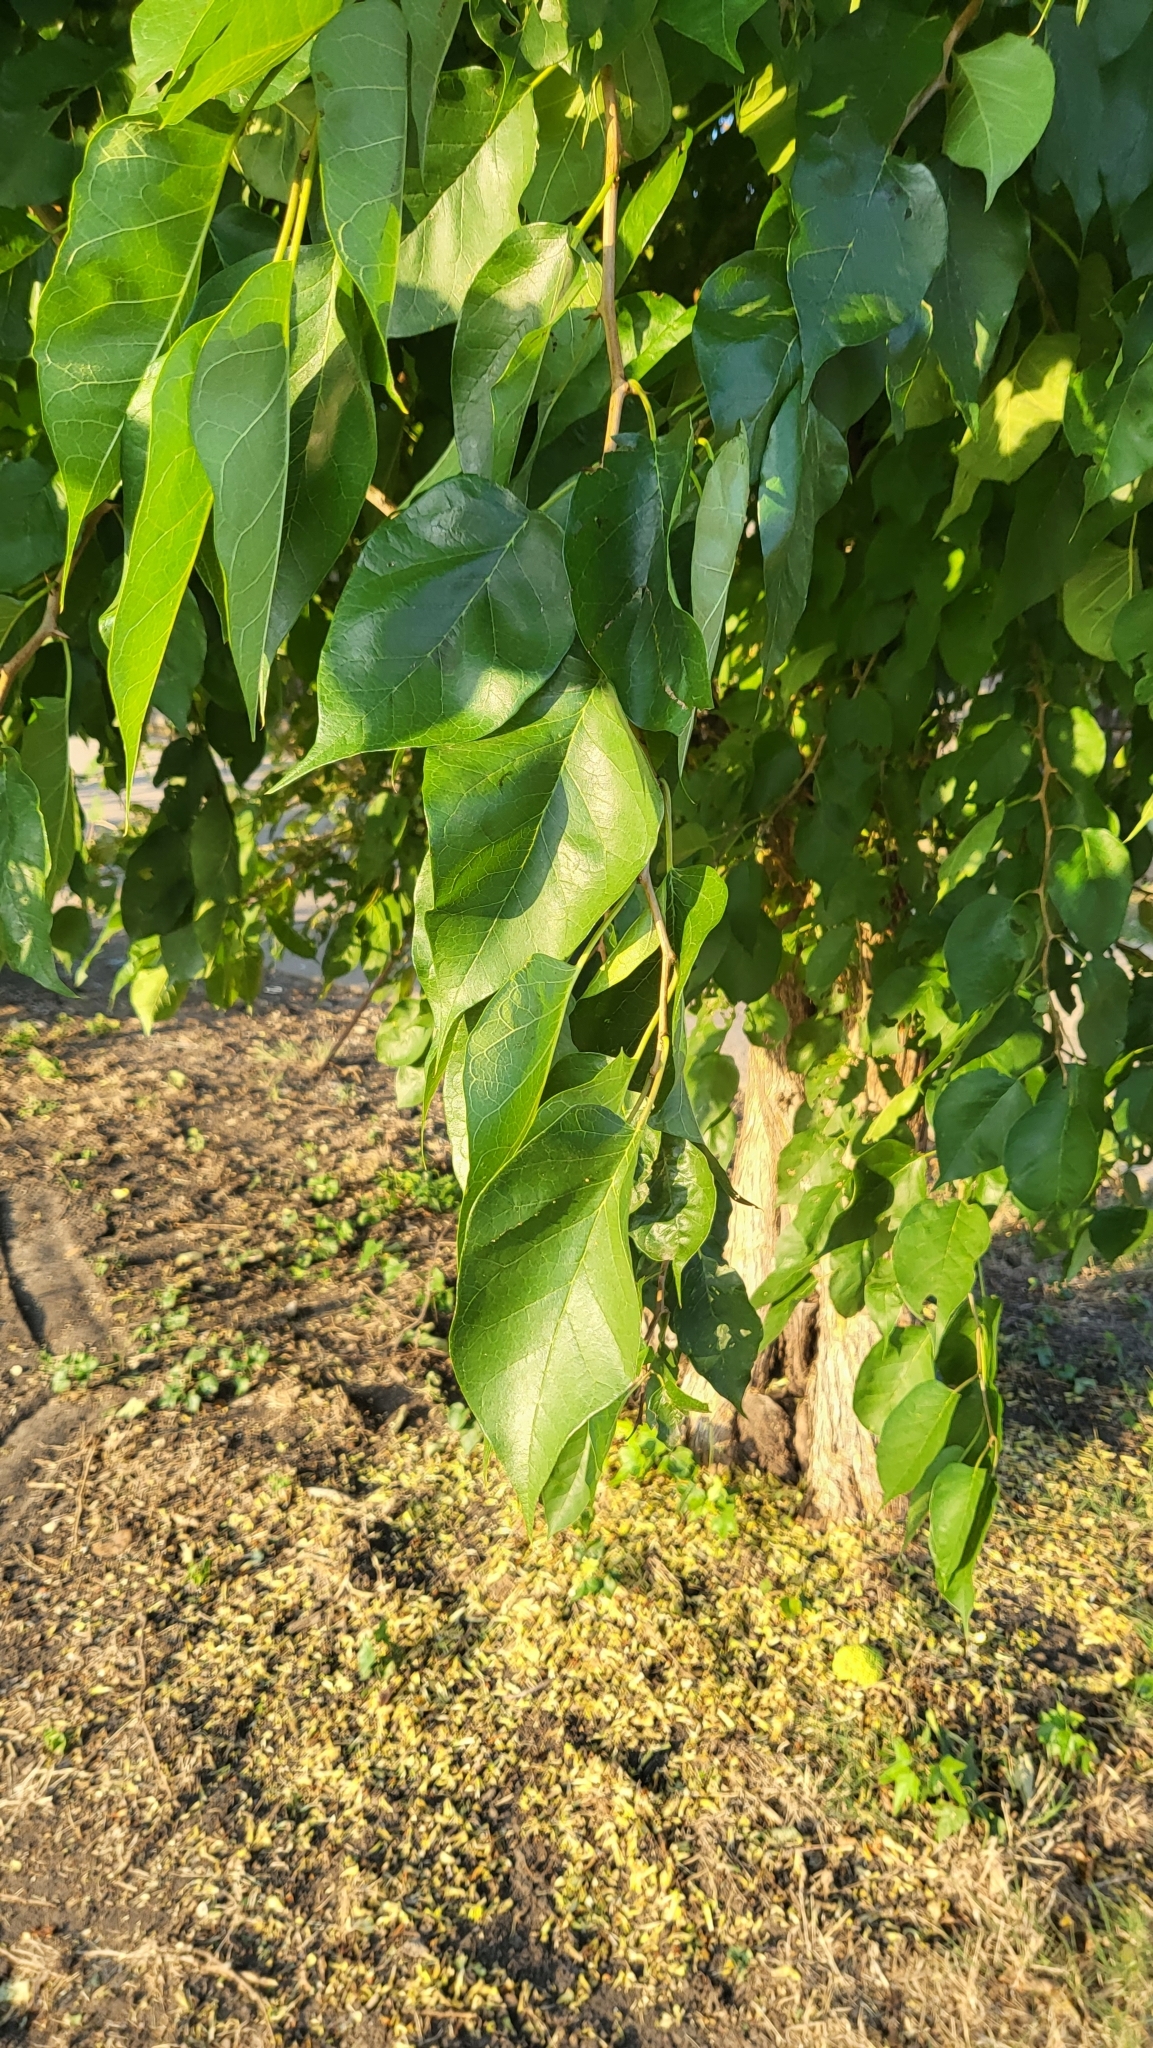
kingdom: Plantae
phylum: Tracheophyta
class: Magnoliopsida
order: Rosales
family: Moraceae
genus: Maclura
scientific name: Maclura pomifera
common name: Osage-orange
